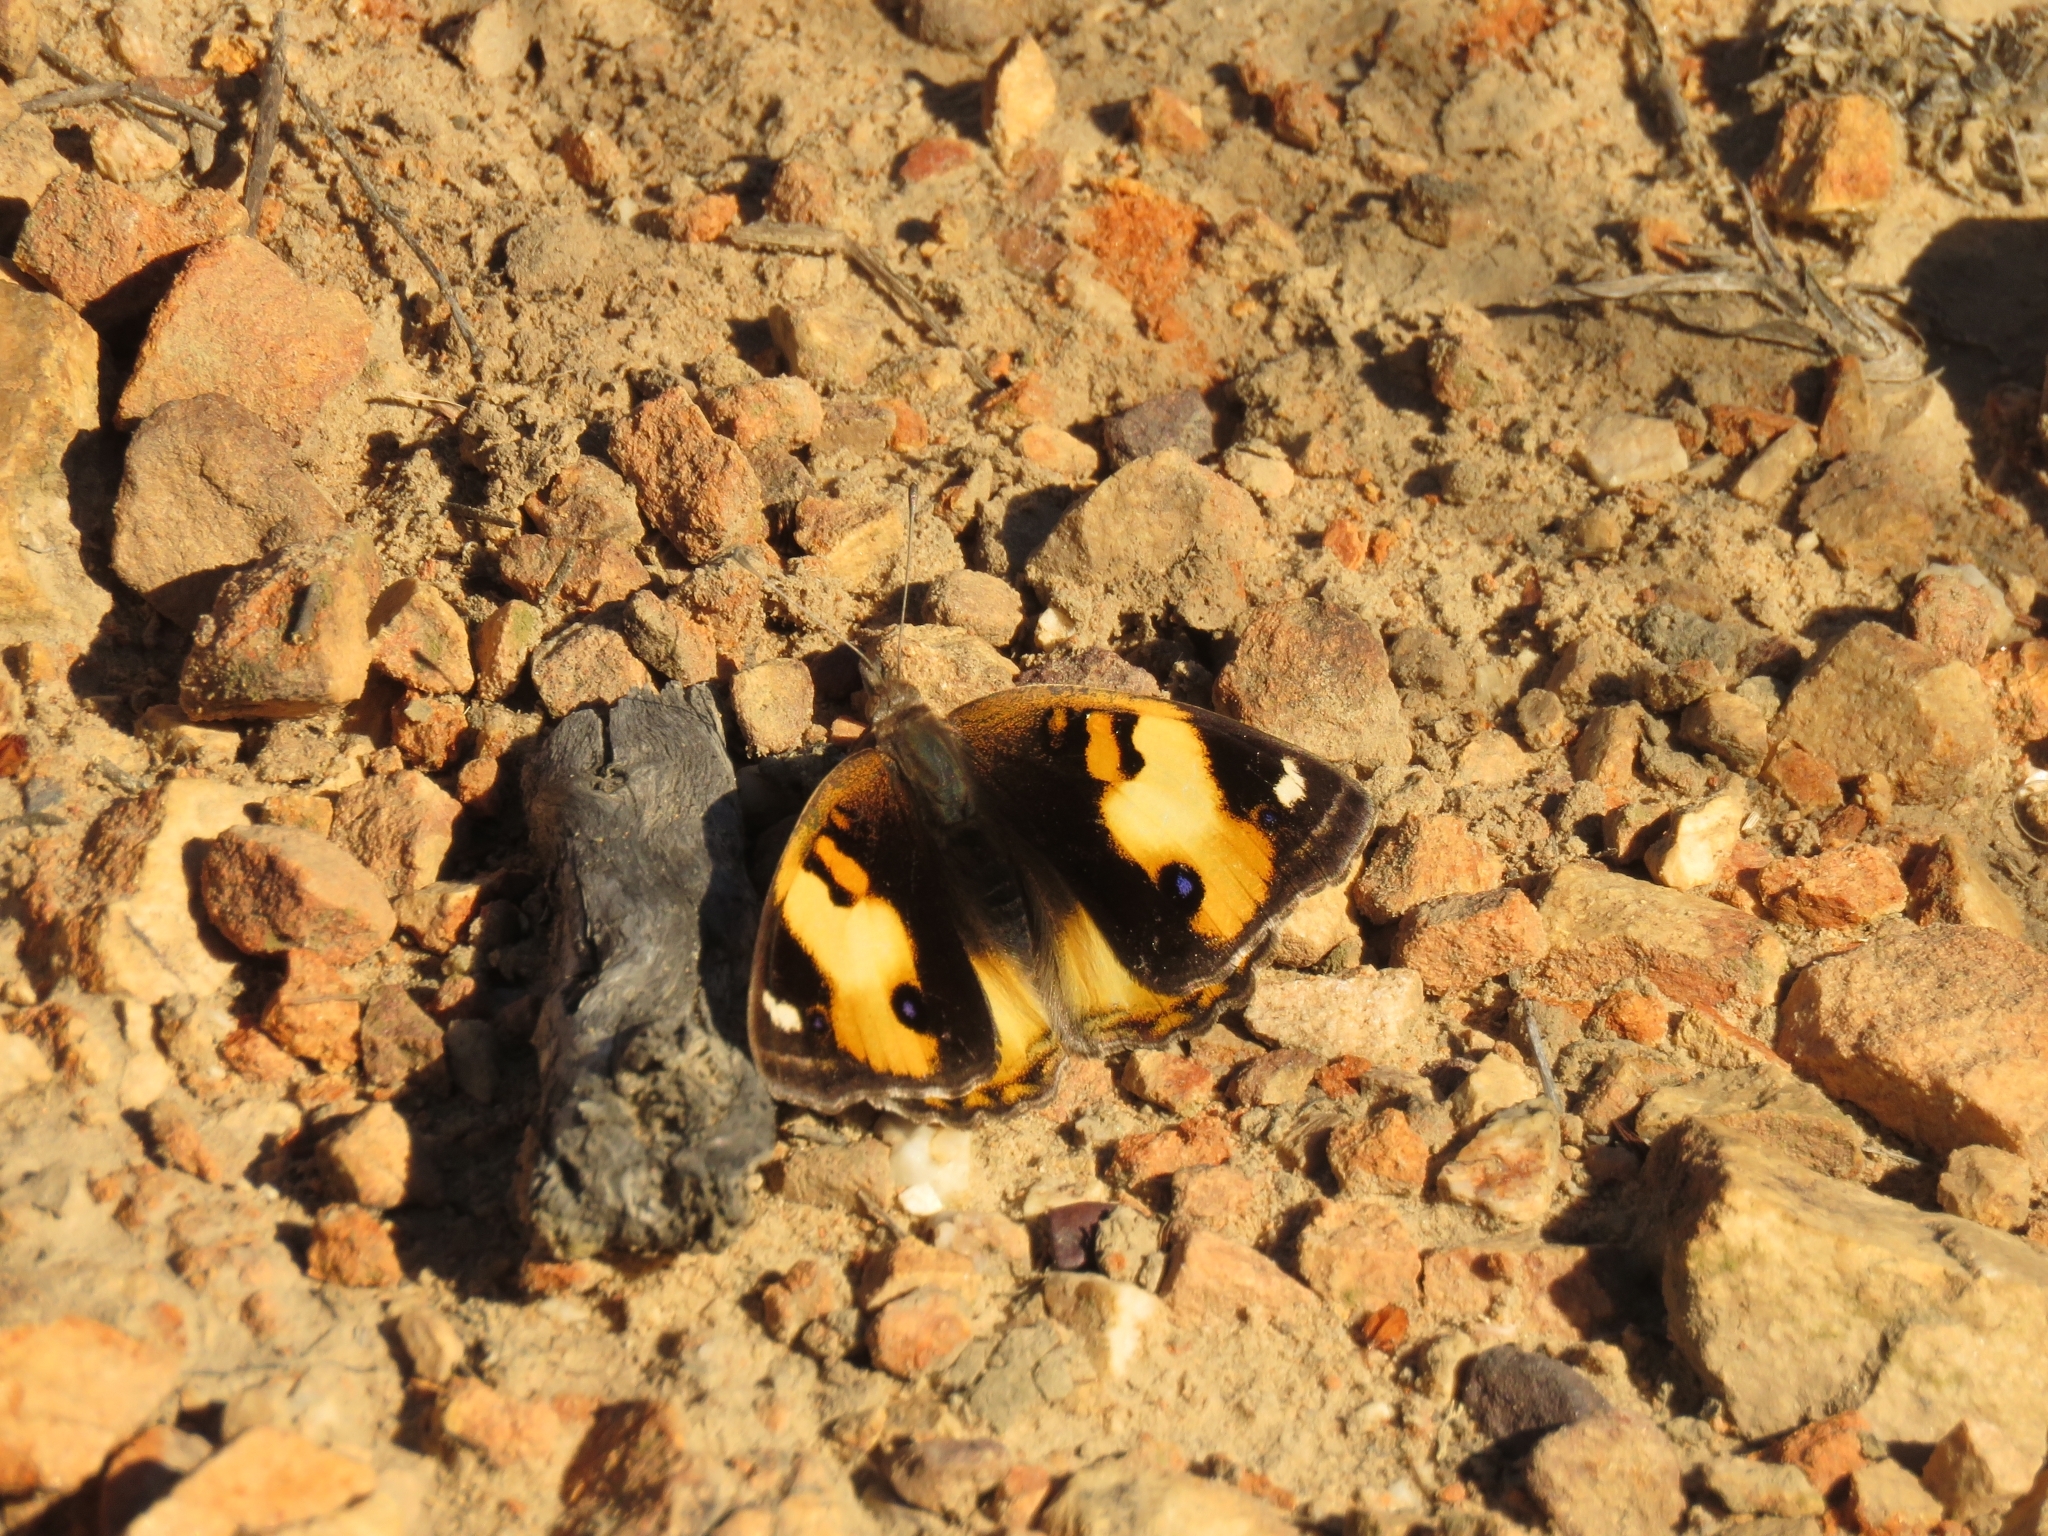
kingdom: Animalia
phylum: Arthropoda
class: Insecta
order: Lepidoptera
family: Nymphalidae
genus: Junonia
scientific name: Junonia hierta
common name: Yellow pansy
